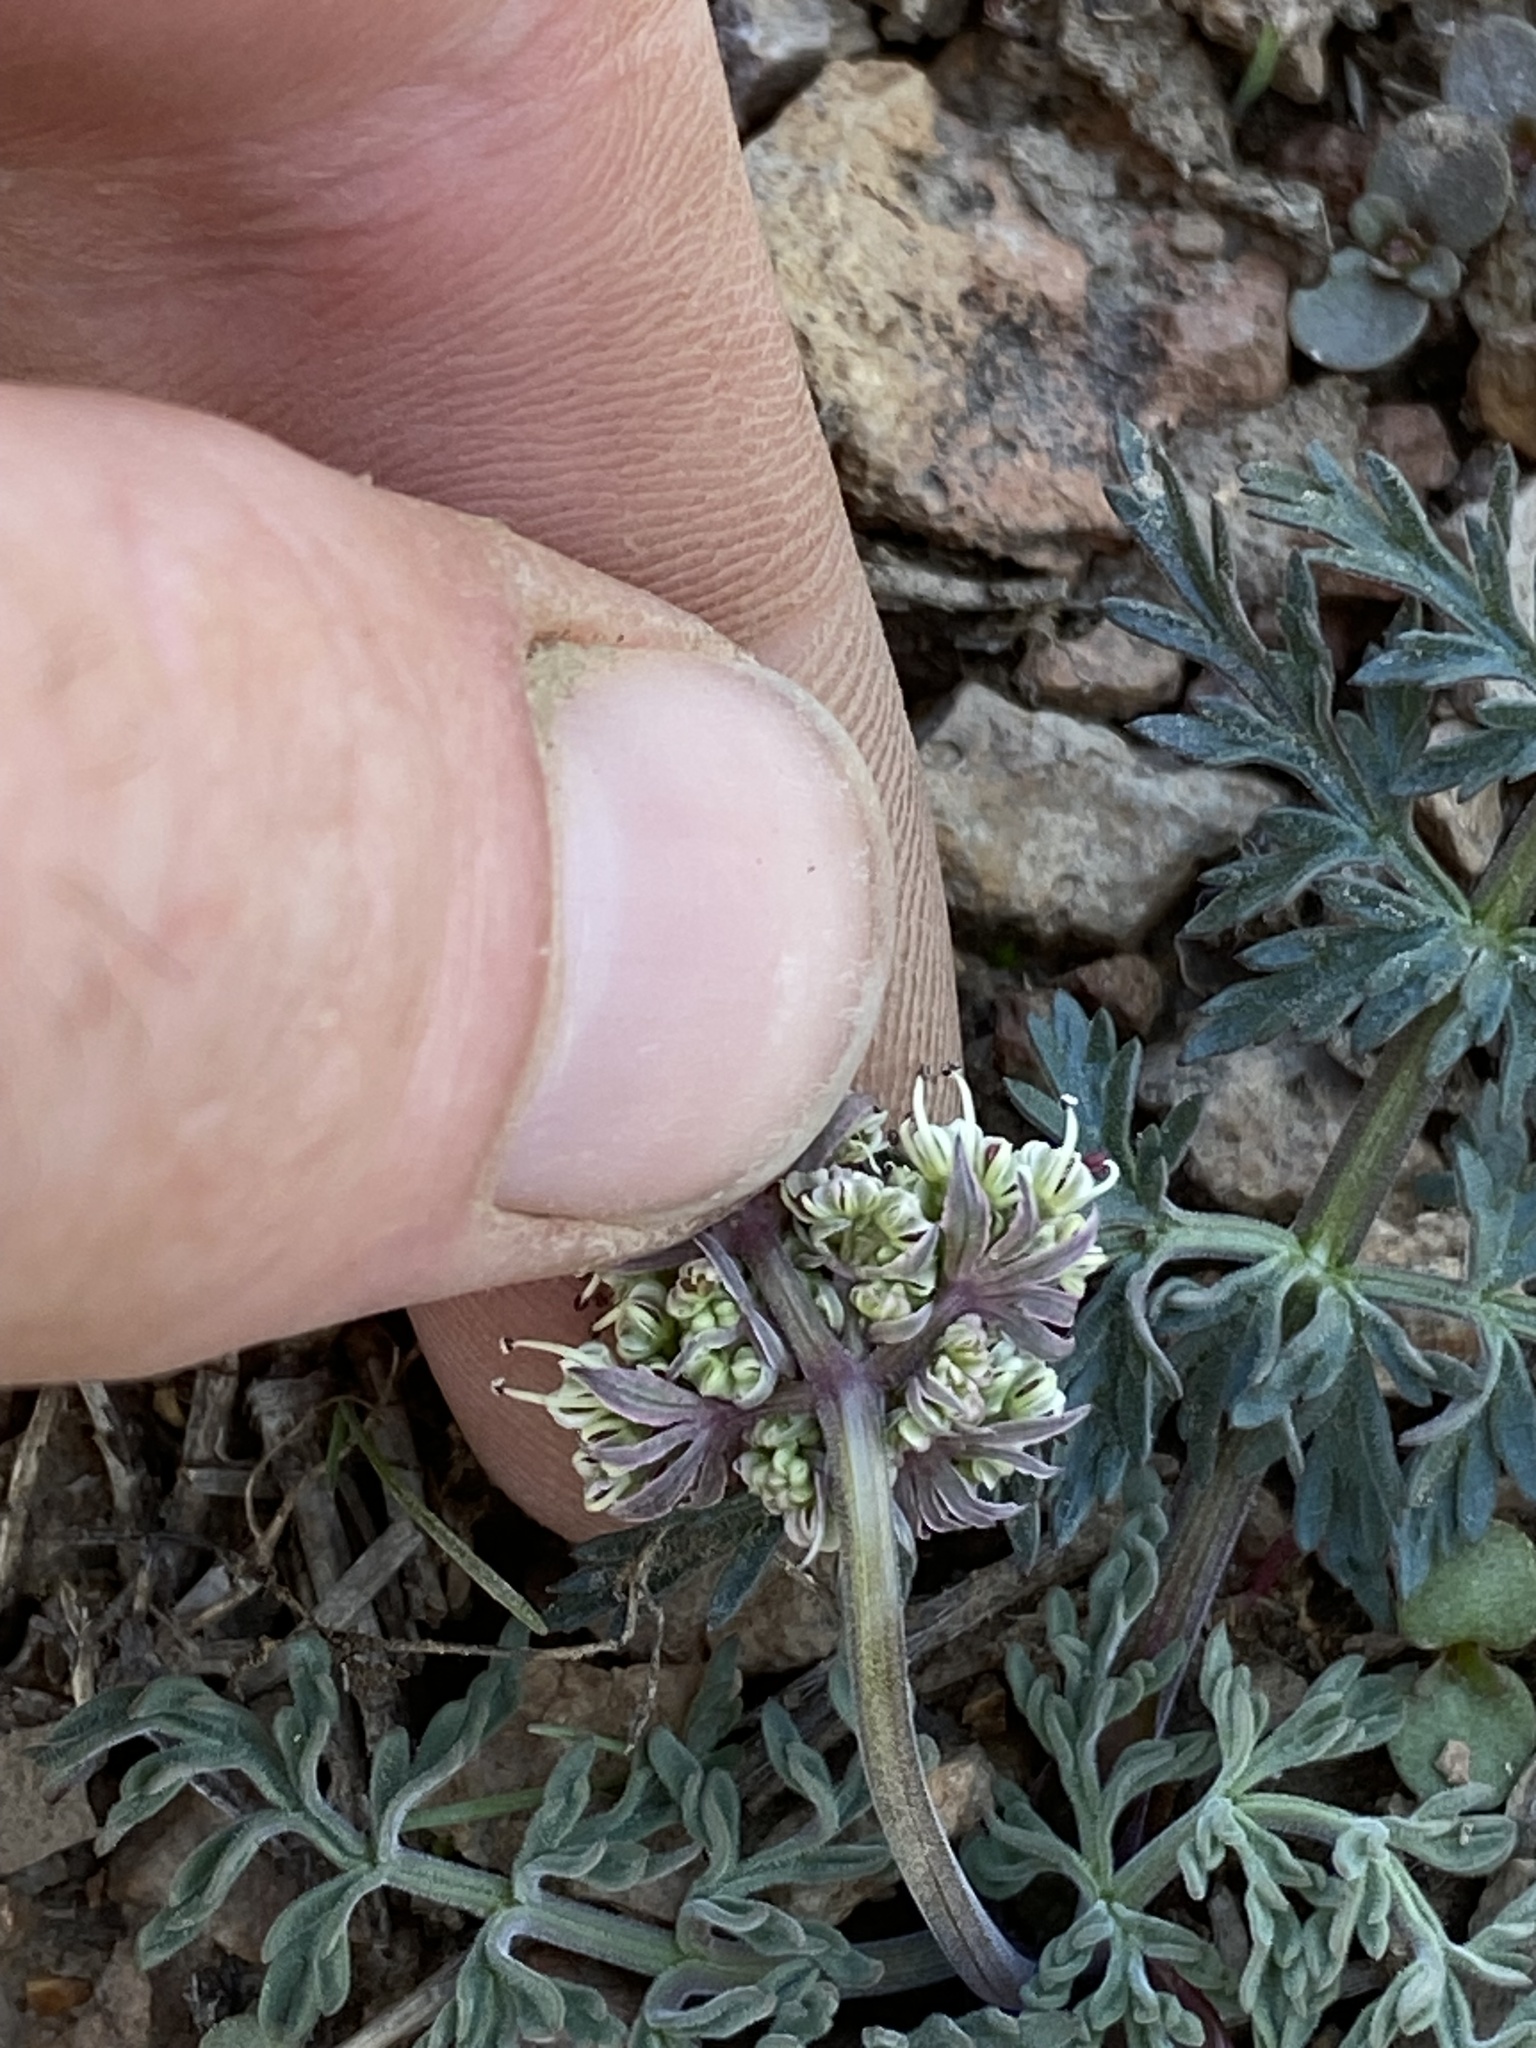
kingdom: Plantae
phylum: Tracheophyta
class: Magnoliopsida
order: Apiales
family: Apiaceae
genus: Lomatium
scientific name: Lomatium nevadense
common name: Nevada lomatium
